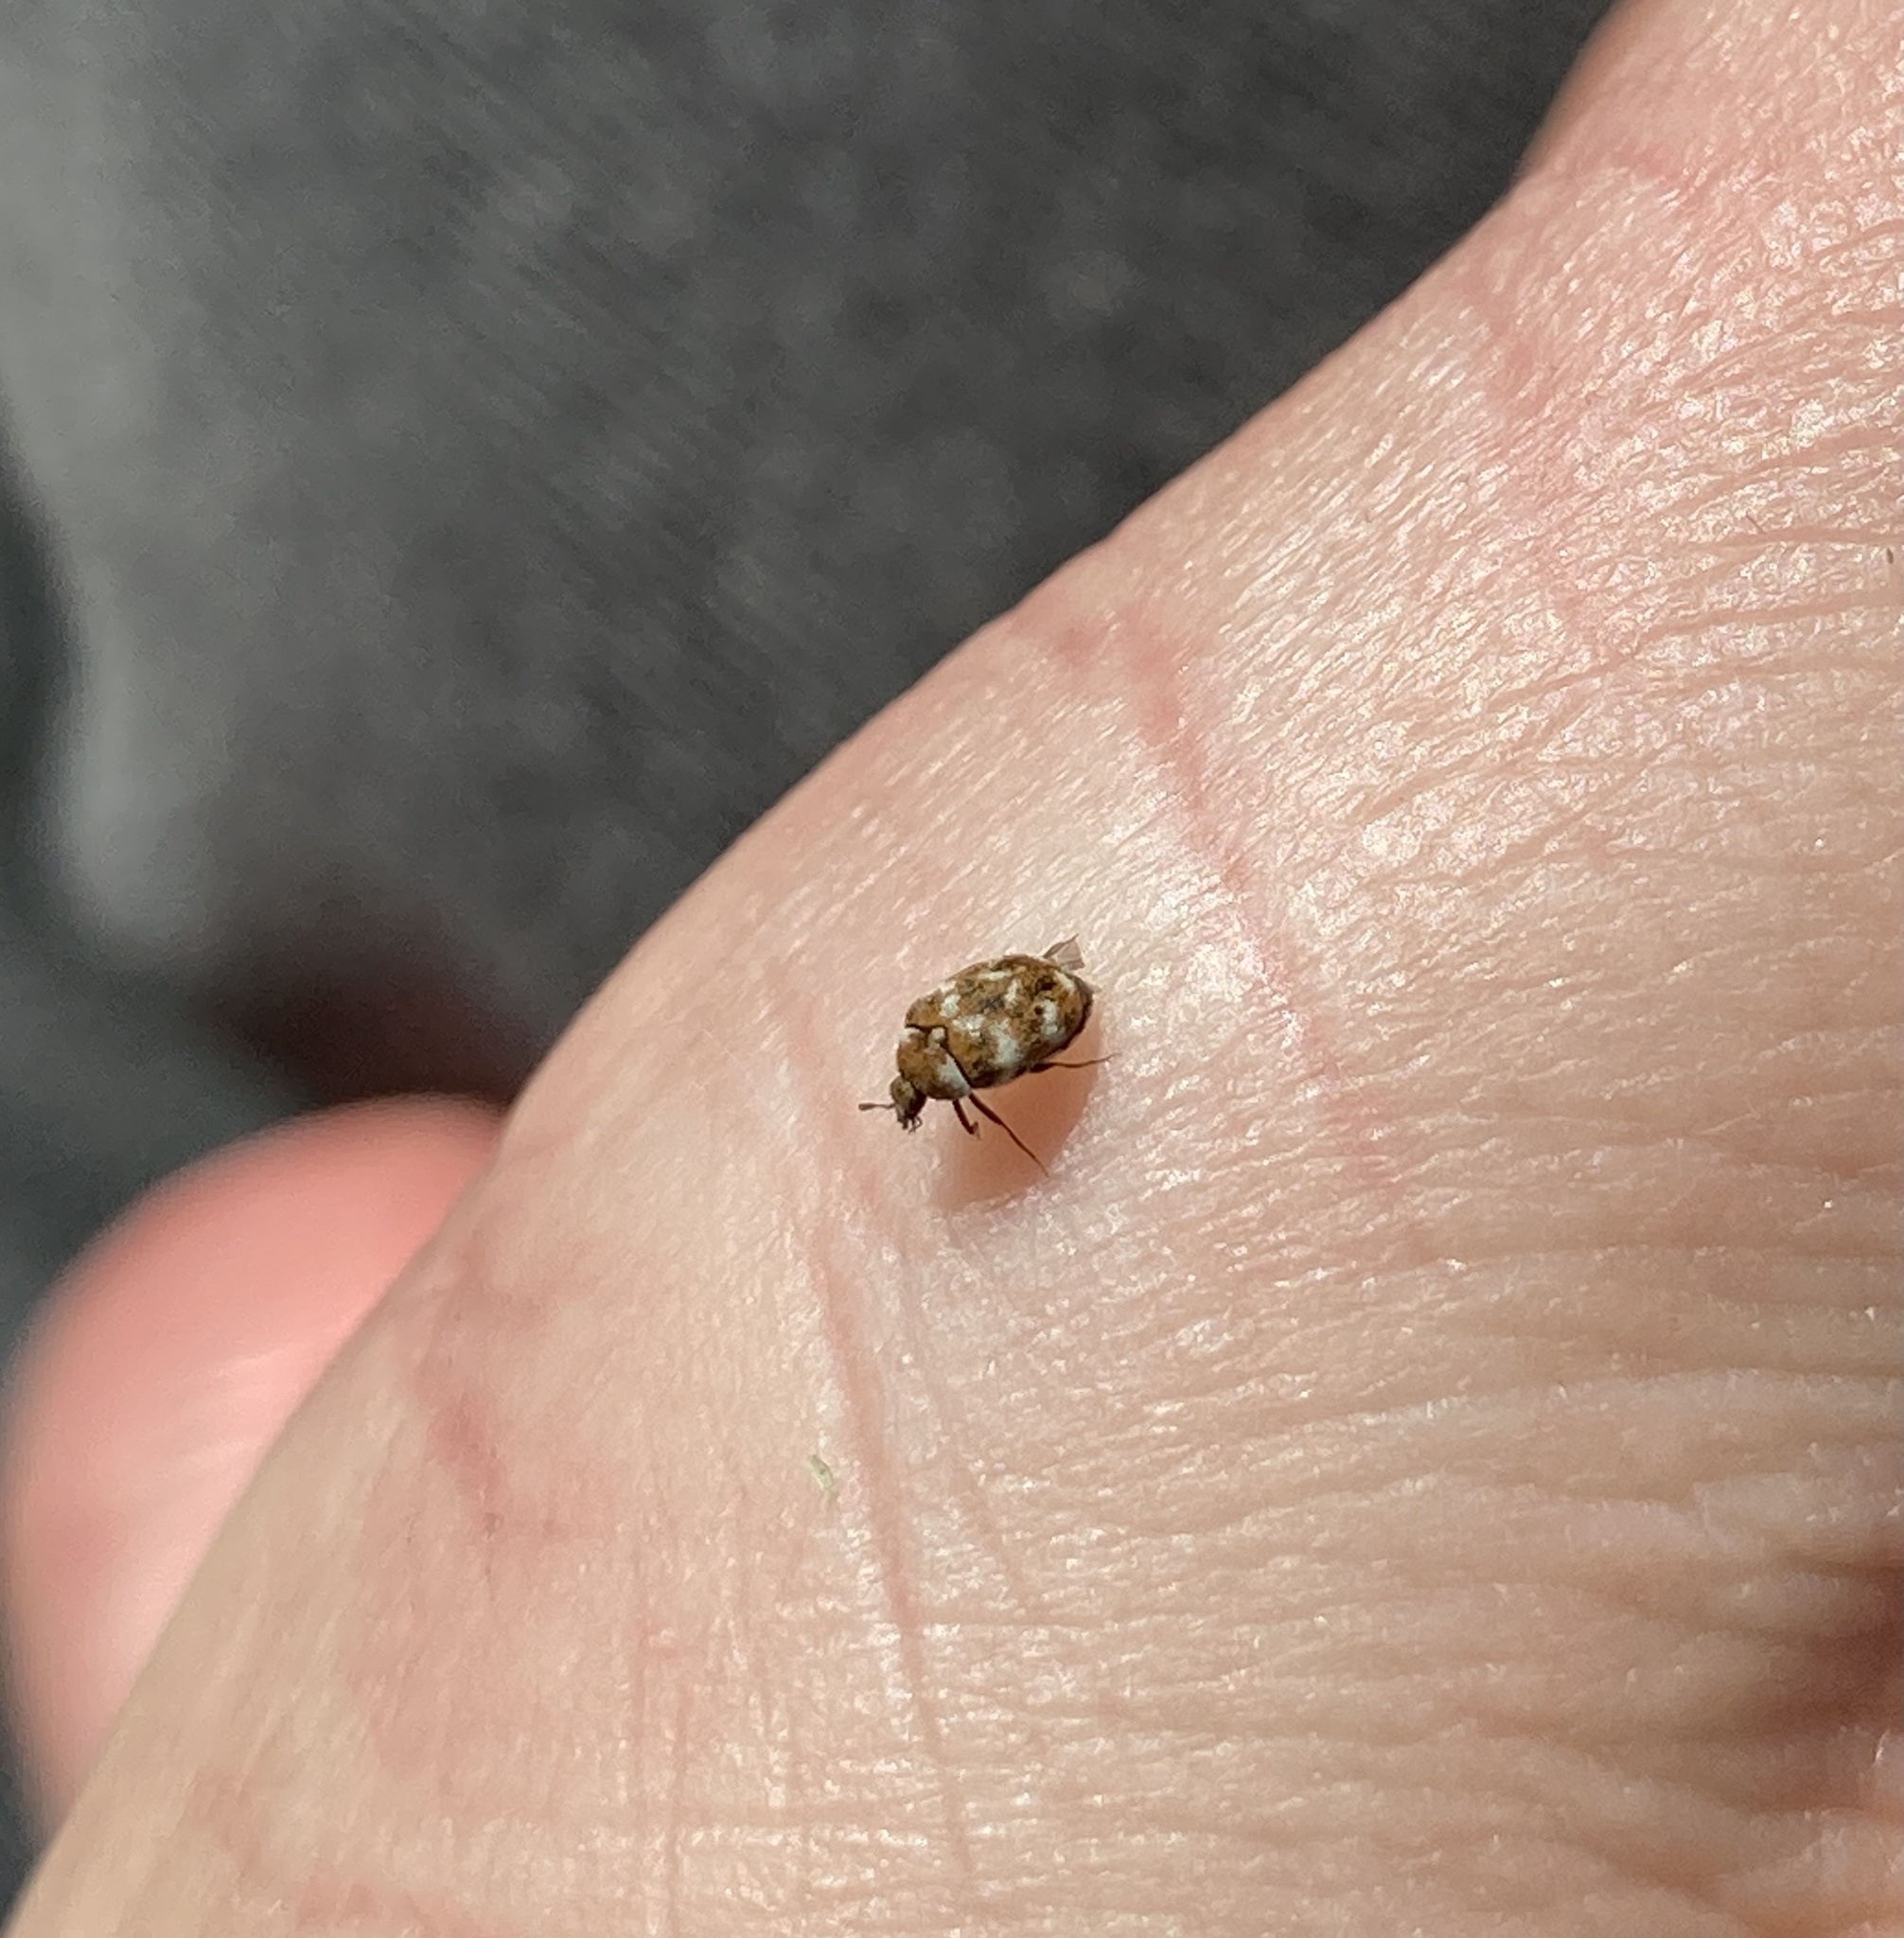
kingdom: Animalia
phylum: Arthropoda
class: Insecta
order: Coleoptera
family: Dermestidae
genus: Anthrenus
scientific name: Anthrenus verbasci
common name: Varied carpet beetle
